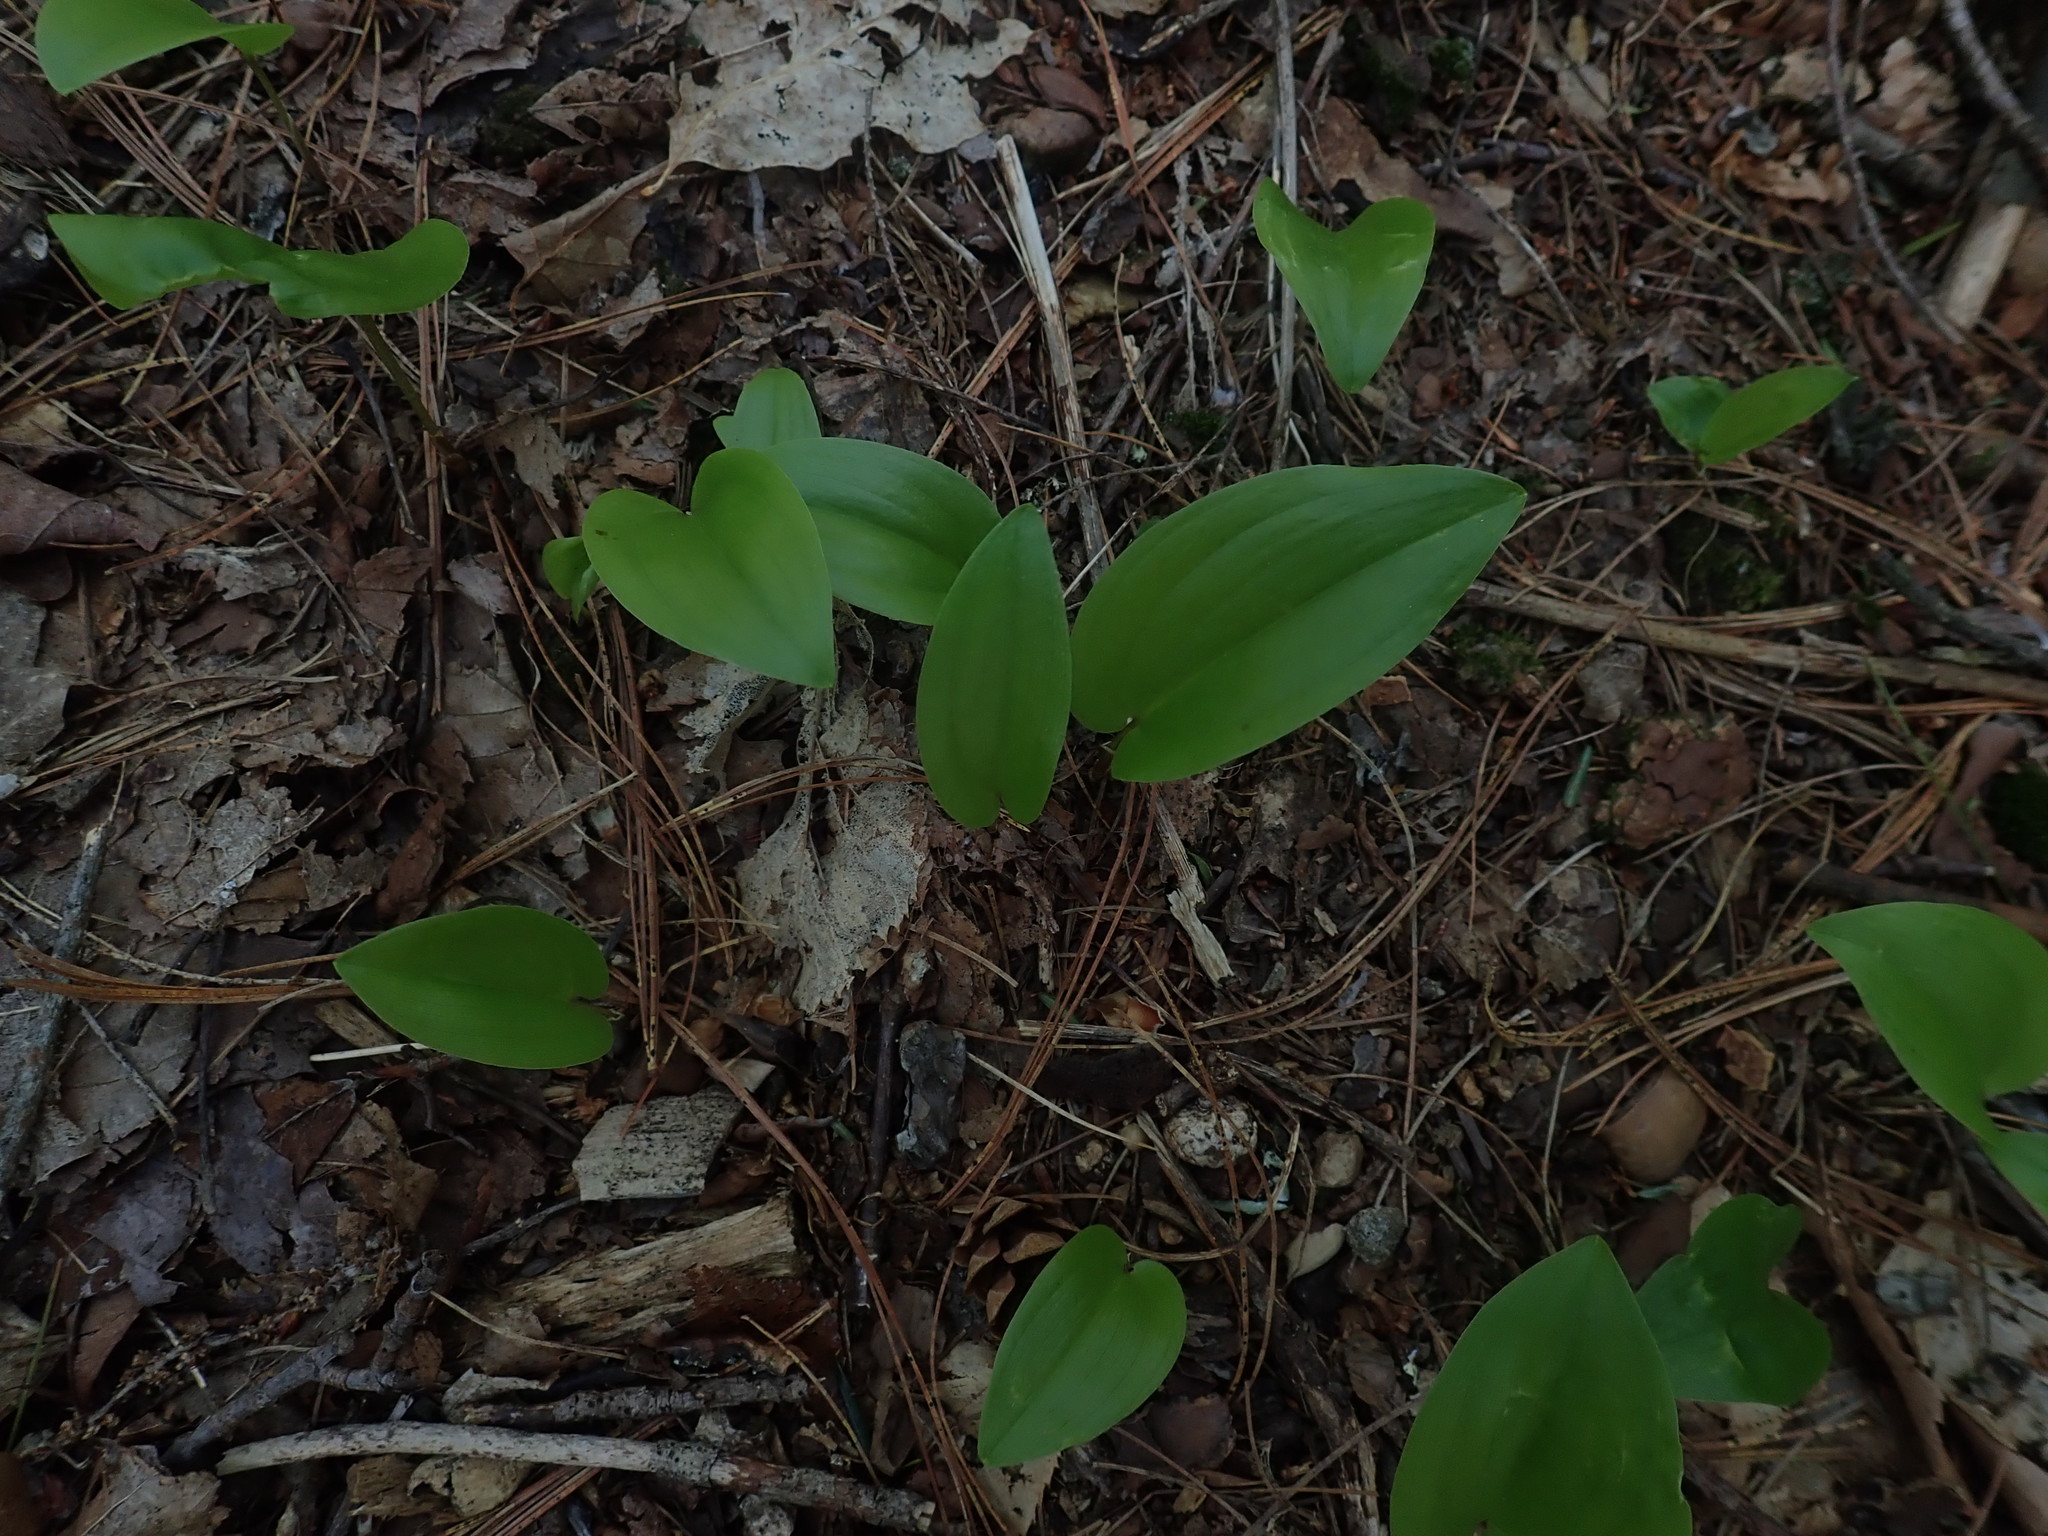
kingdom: Plantae
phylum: Tracheophyta
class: Liliopsida
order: Asparagales
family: Asparagaceae
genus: Maianthemum
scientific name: Maianthemum canadense
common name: False lily-of-the-valley
